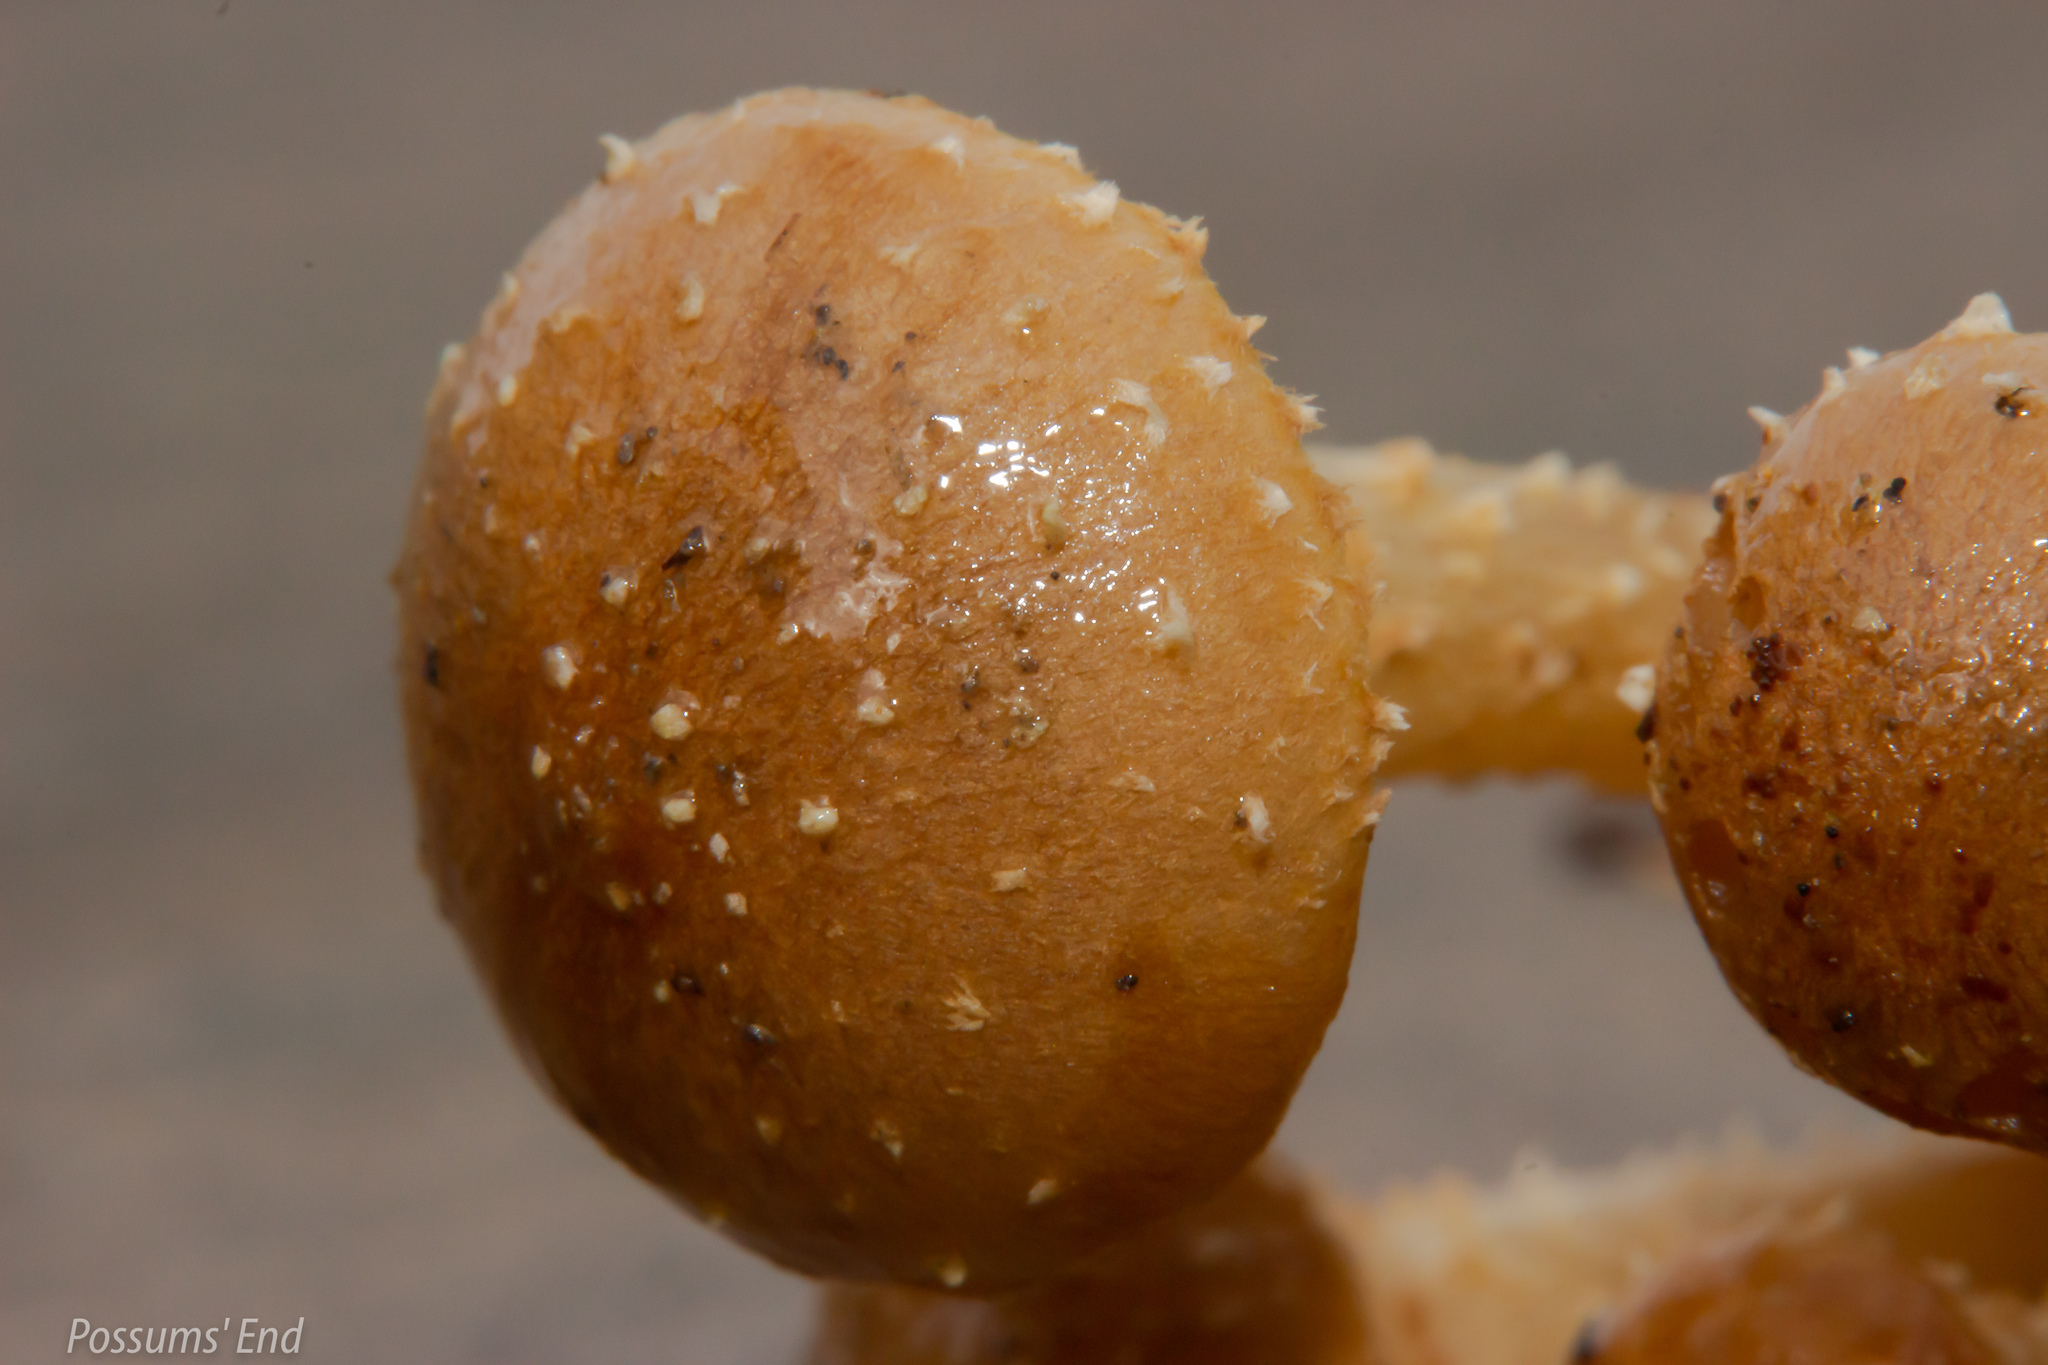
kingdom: Fungi
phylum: Basidiomycota
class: Agaricomycetes
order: Agaricales
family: Strophariaceae
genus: Pholiota
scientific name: Pholiota subflammans
